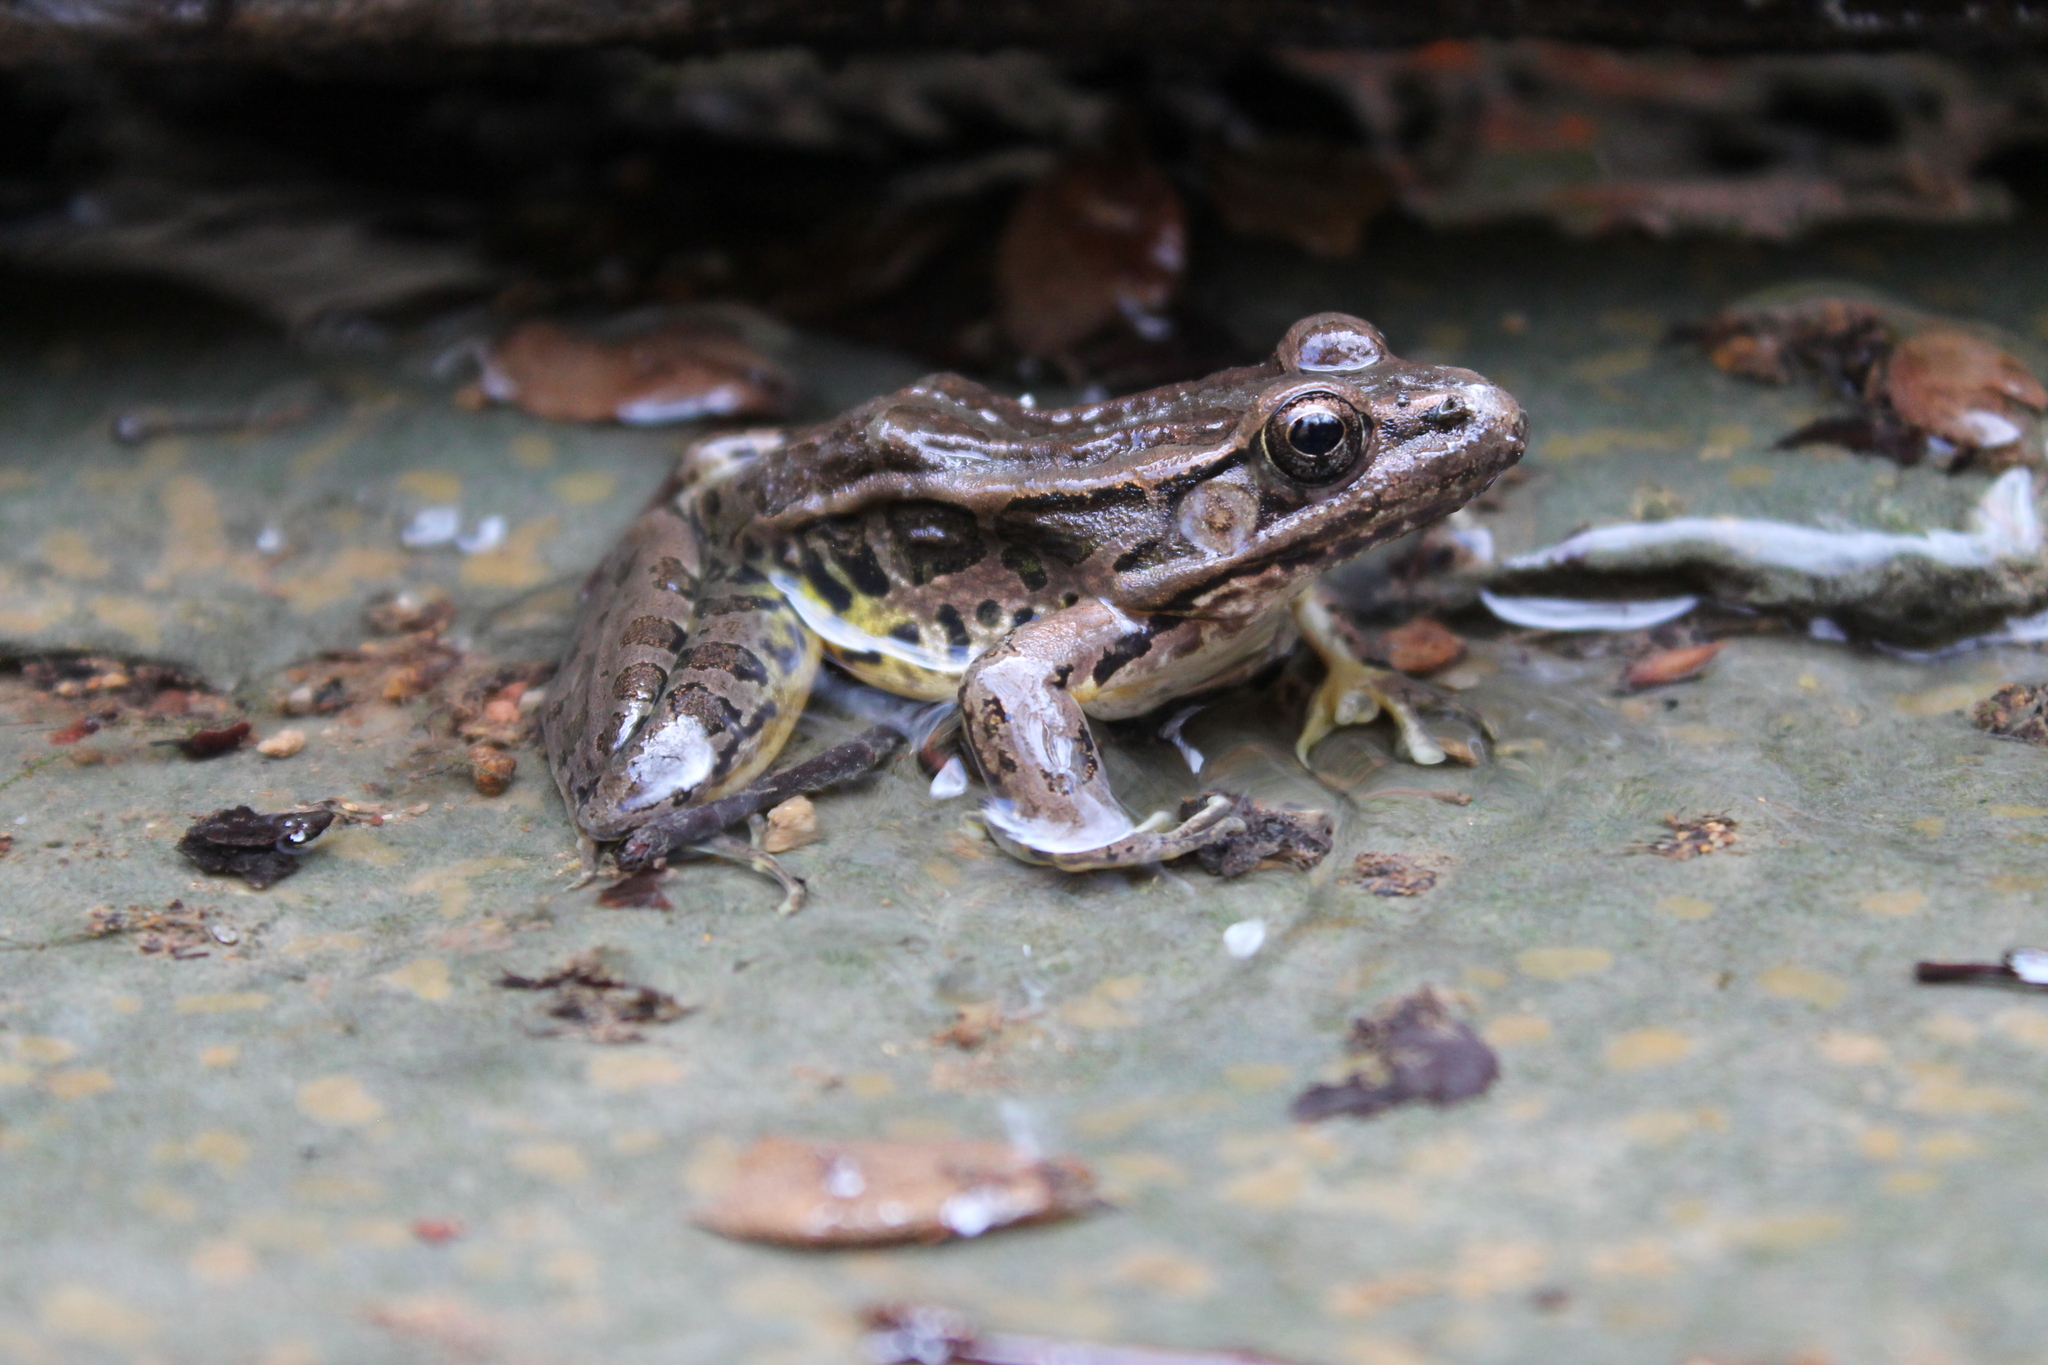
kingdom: Animalia
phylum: Chordata
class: Amphibia
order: Anura
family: Ranidae
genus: Lithobates
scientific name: Lithobates palustris
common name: Pickerel frog
